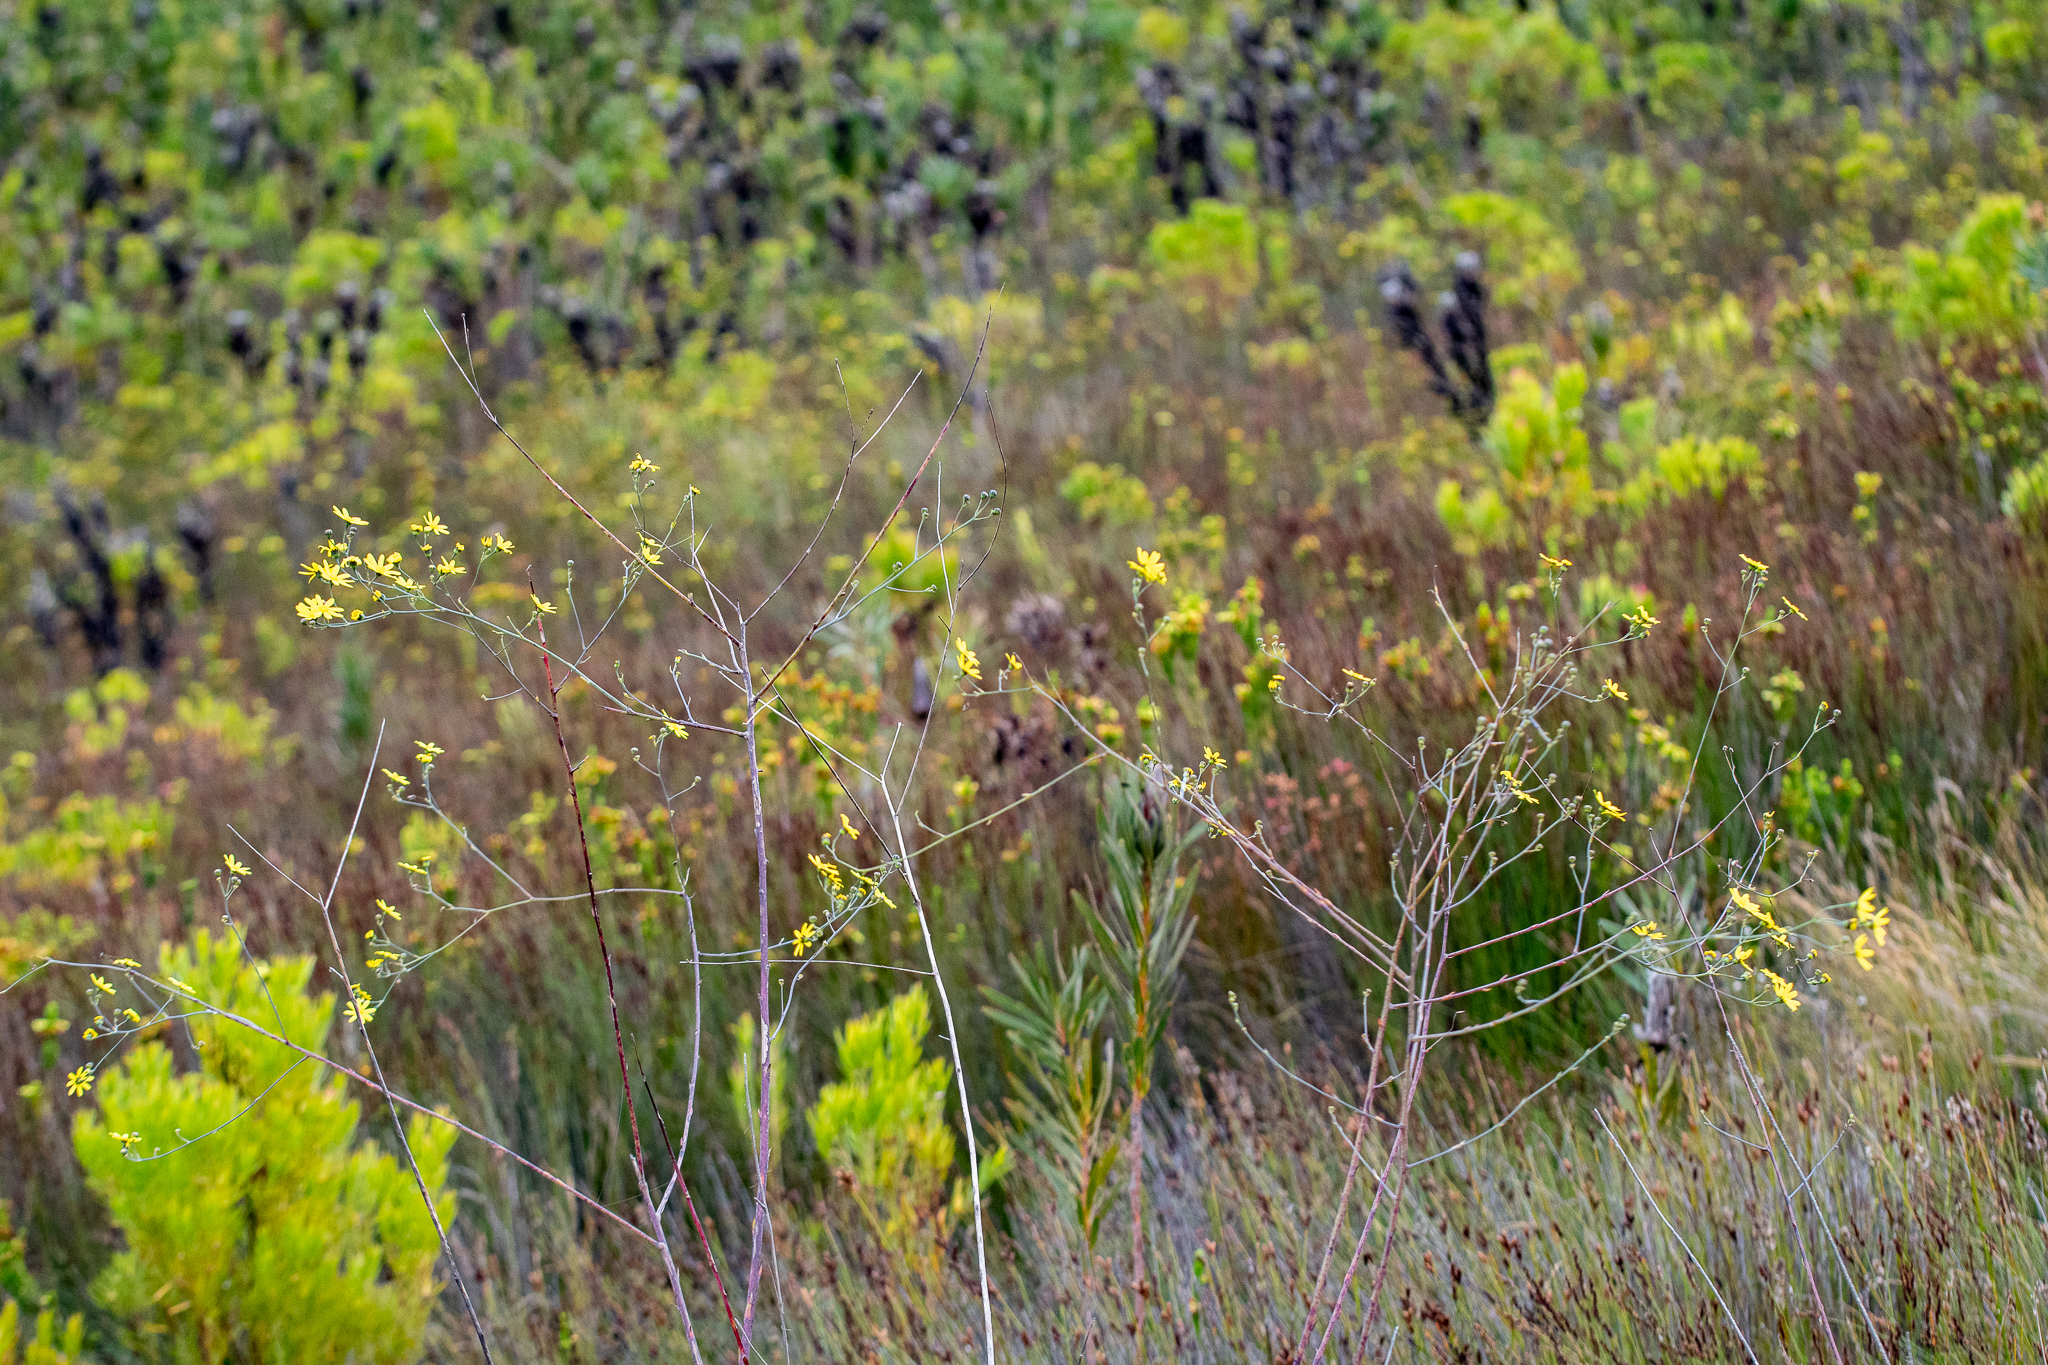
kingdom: Plantae
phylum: Tracheophyta
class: Magnoliopsida
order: Asterales
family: Asteraceae
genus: Othonna
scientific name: Othonna quinquedentata
